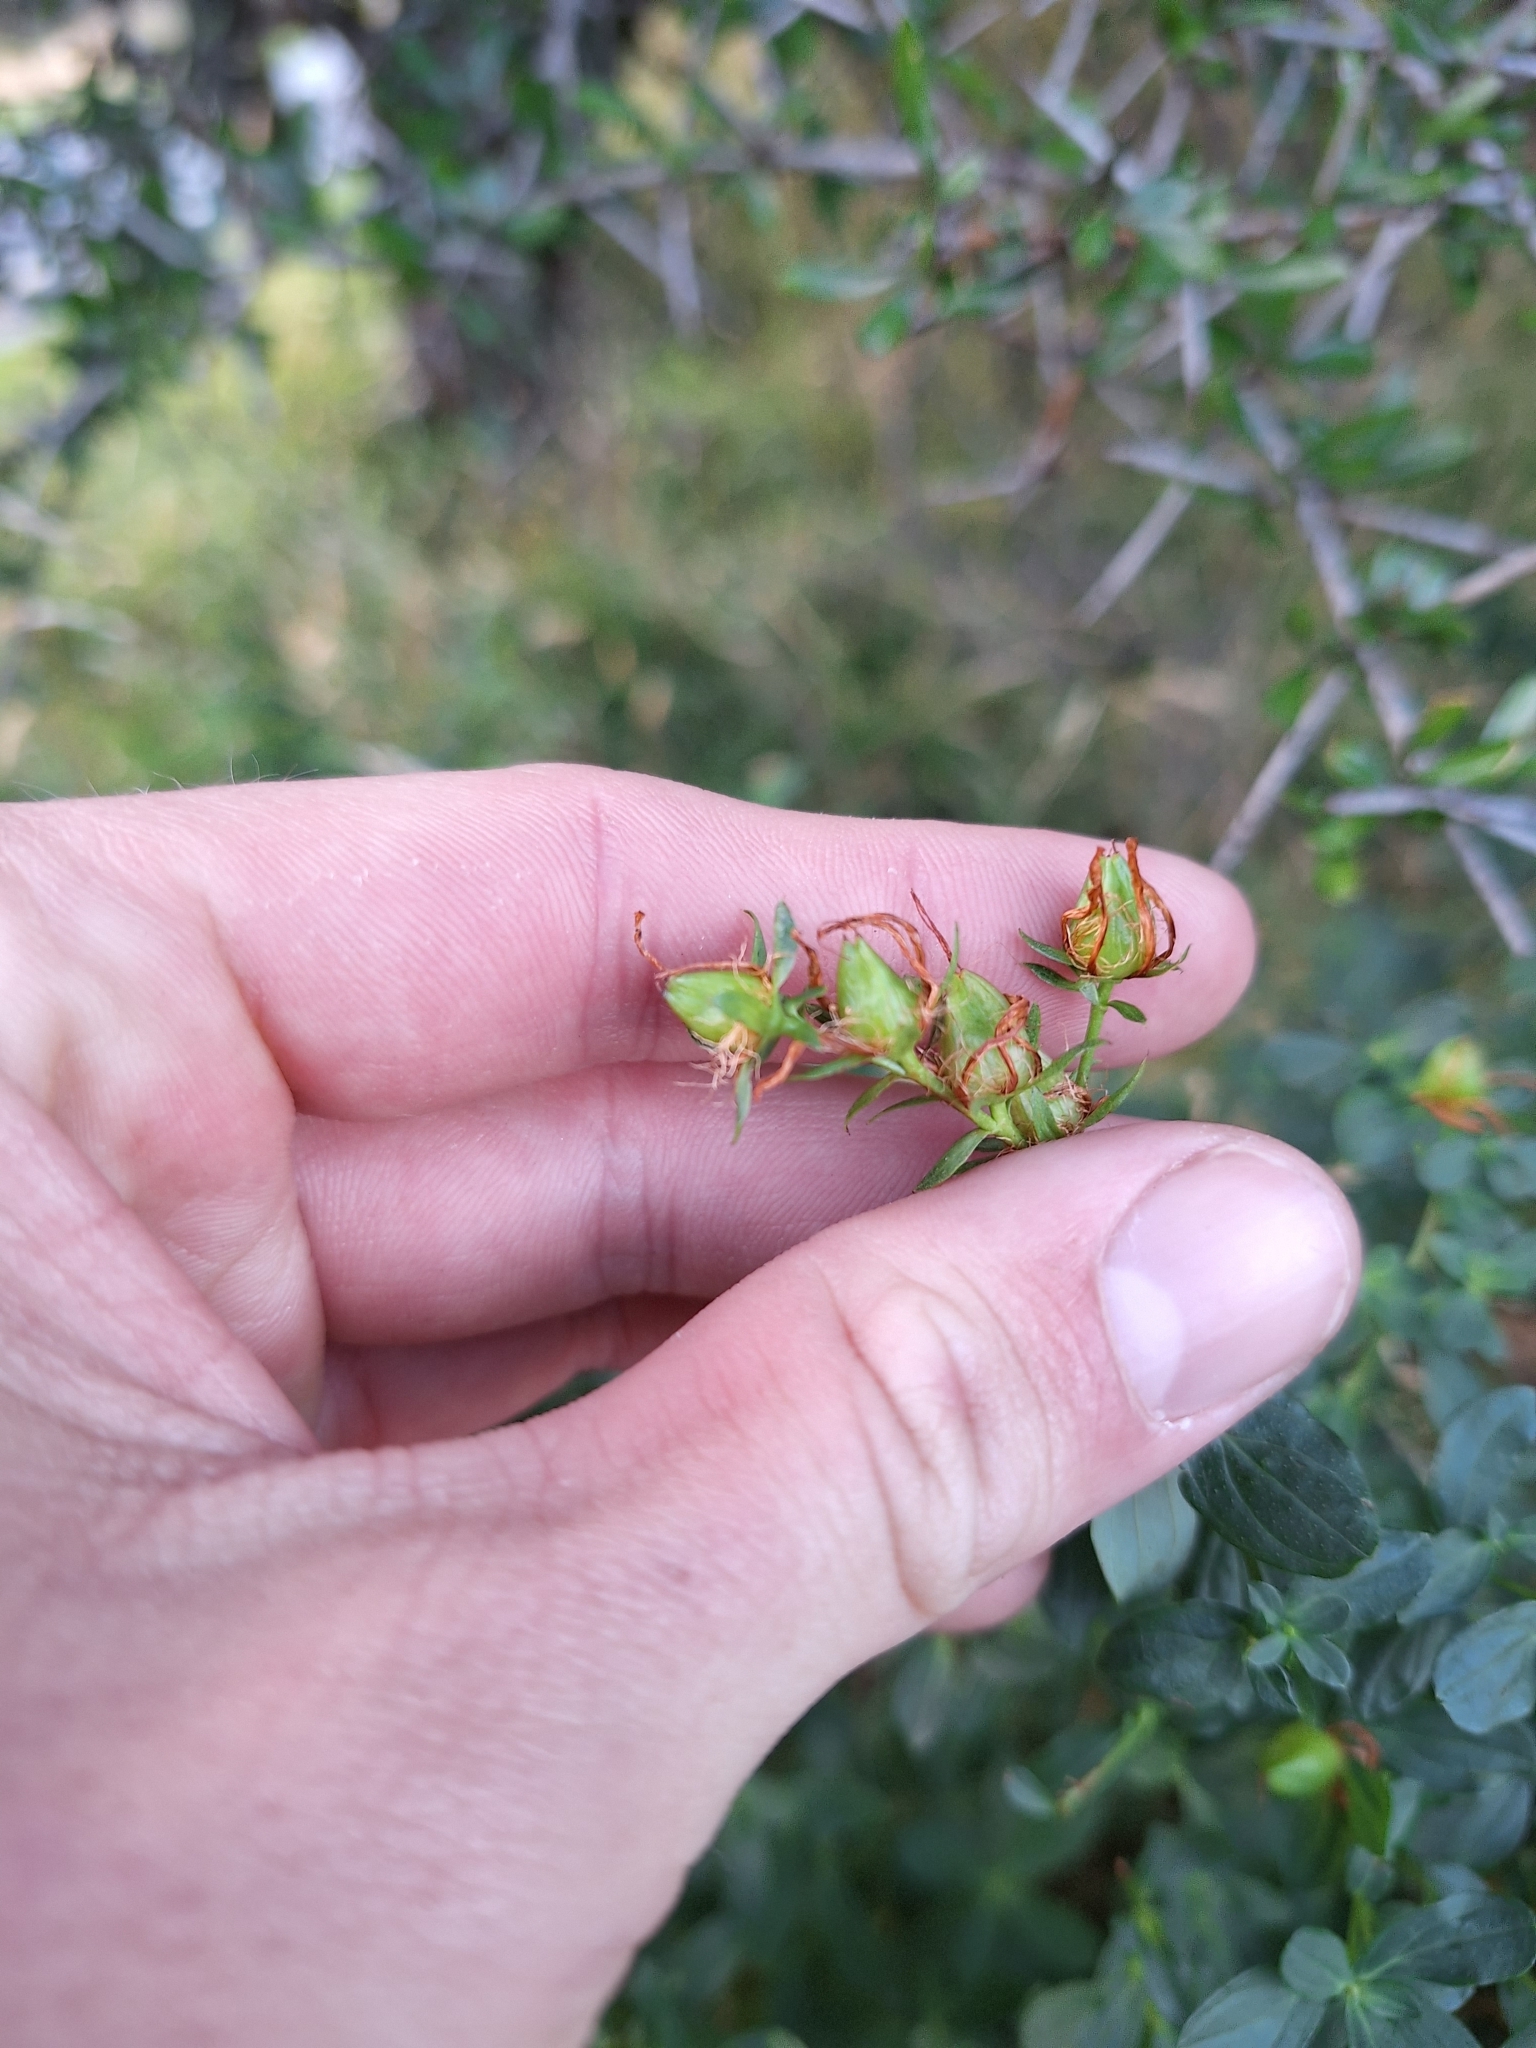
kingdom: Plantae
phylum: Tracheophyta
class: Magnoliopsida
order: Malpighiales
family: Hypericaceae
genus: Hypericum
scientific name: Hypericum perforatum
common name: Common st. johnswort
